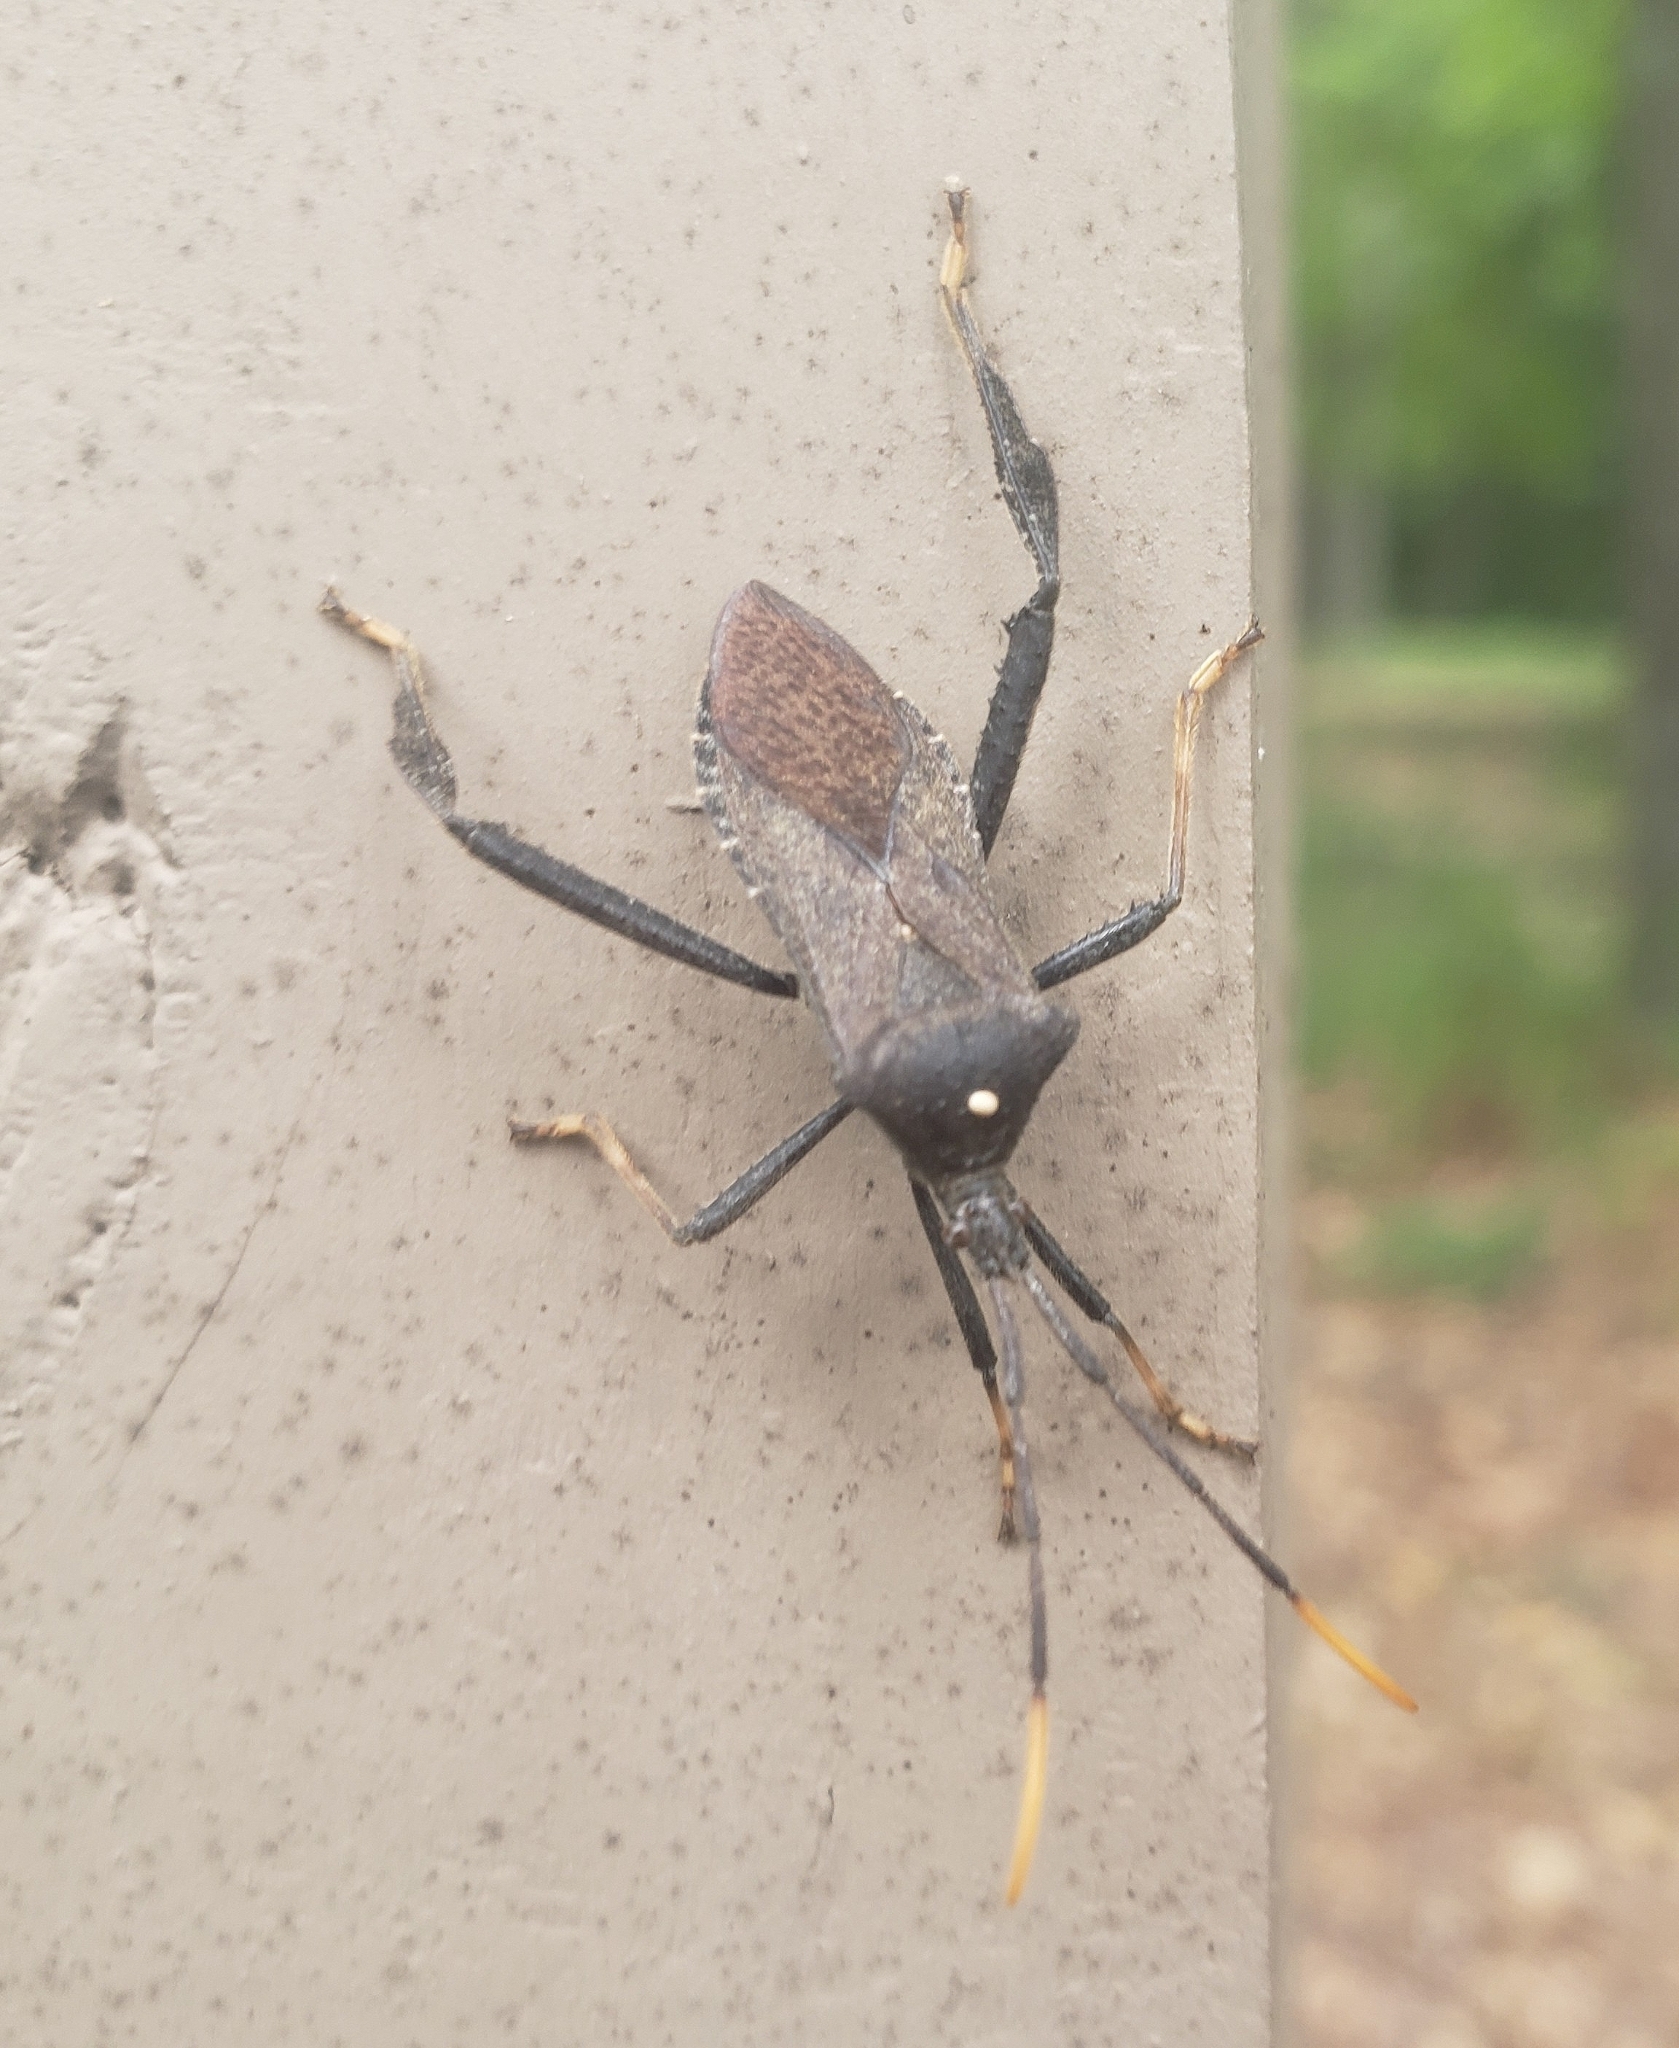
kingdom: Animalia
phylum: Arthropoda
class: Insecta
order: Hemiptera
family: Coreidae
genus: Acanthocephala
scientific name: Acanthocephala terminalis
